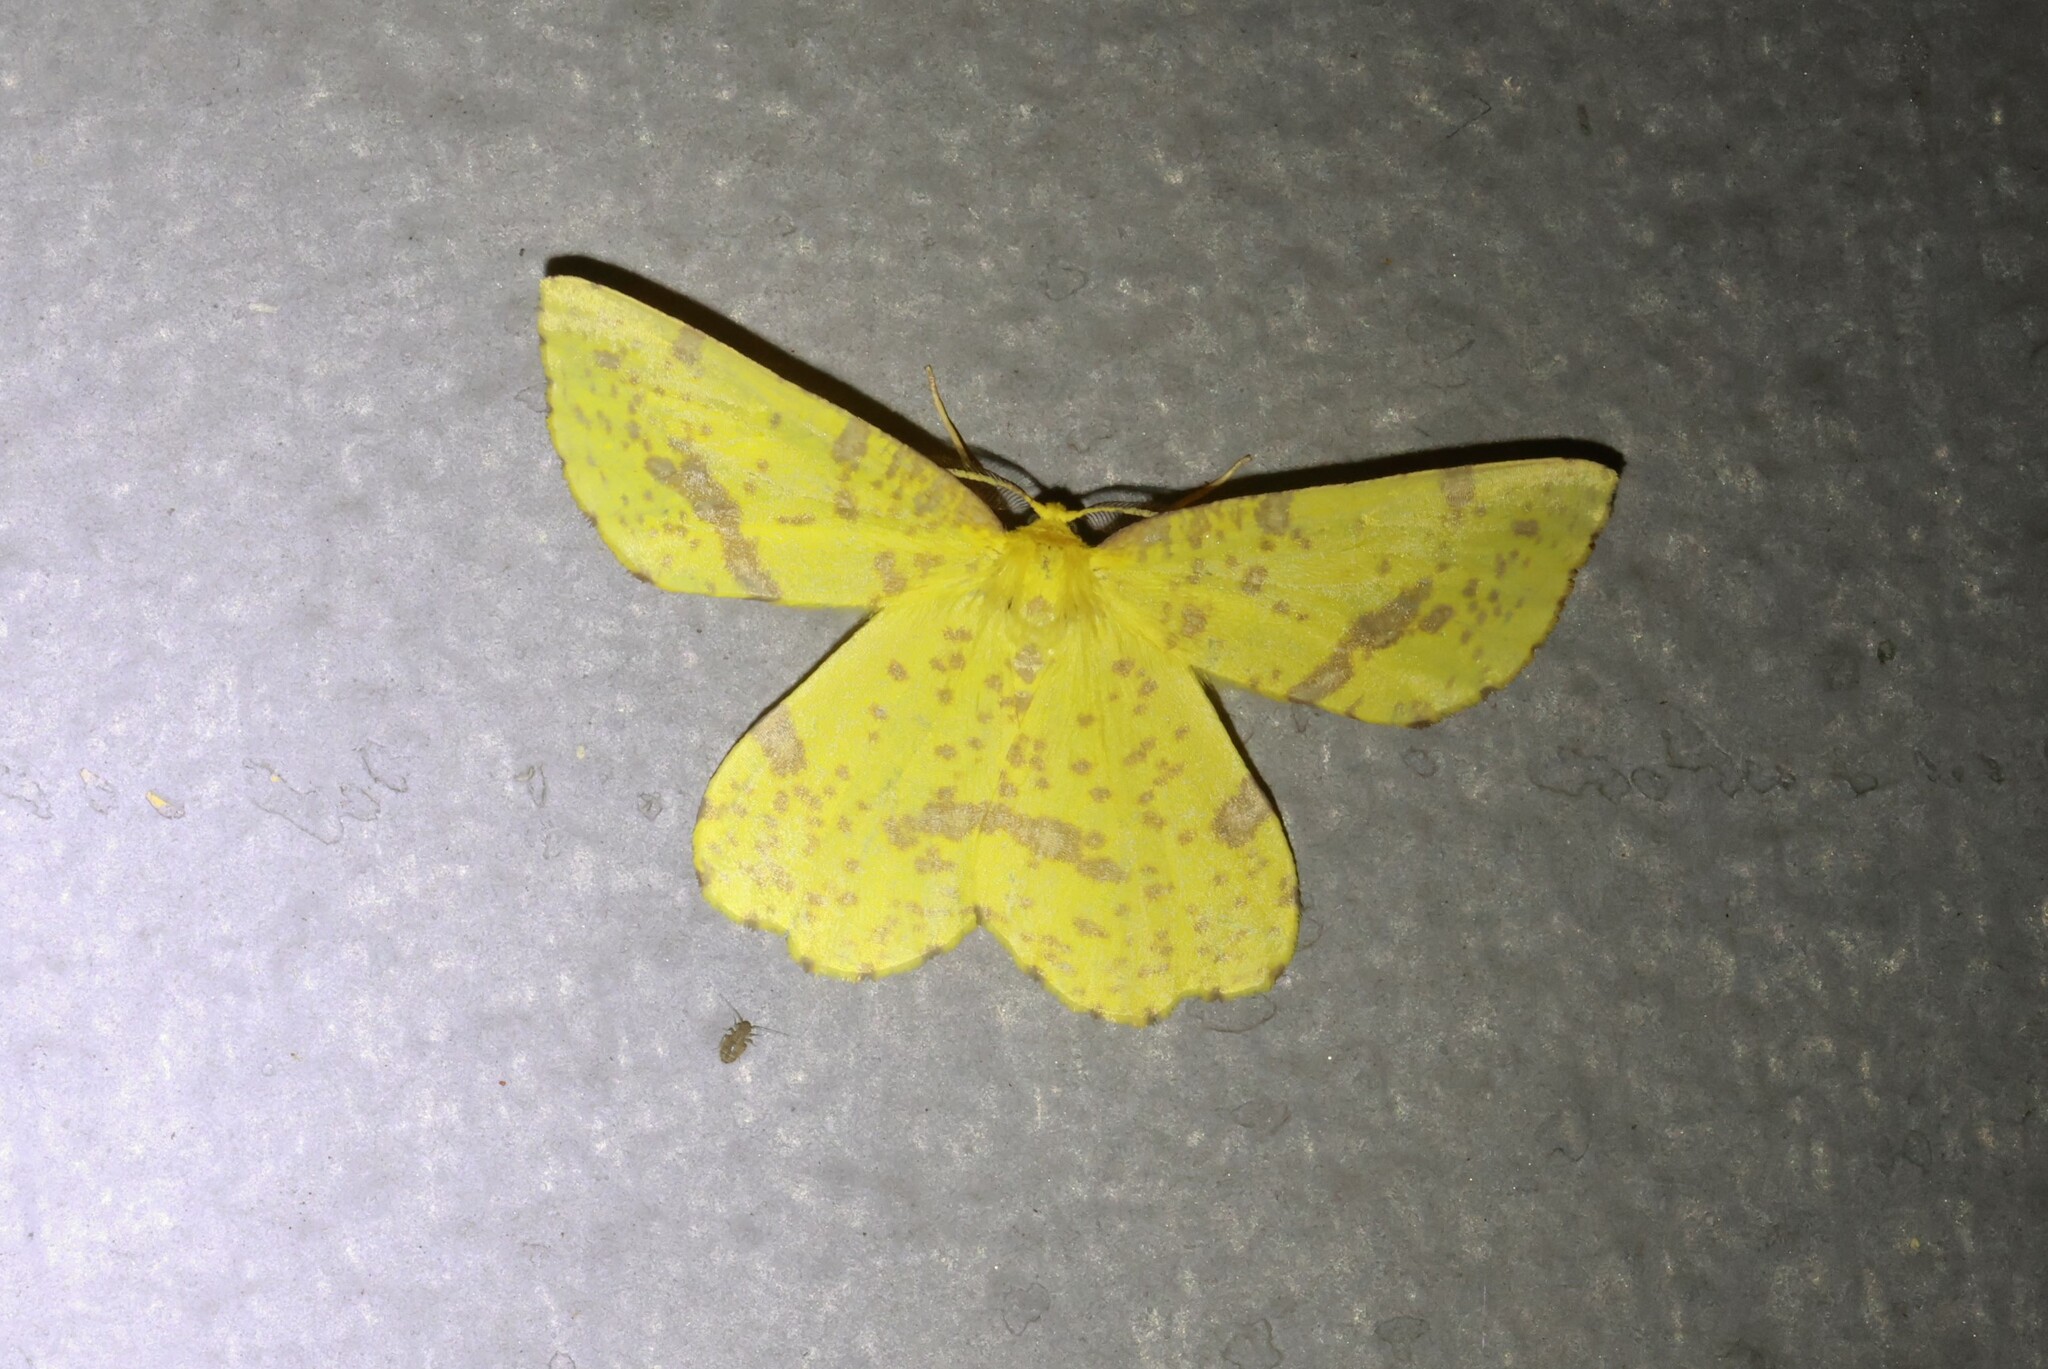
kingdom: Animalia
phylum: Arthropoda
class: Insecta
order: Lepidoptera
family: Geometridae
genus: Xanthotype
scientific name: Xanthotype
